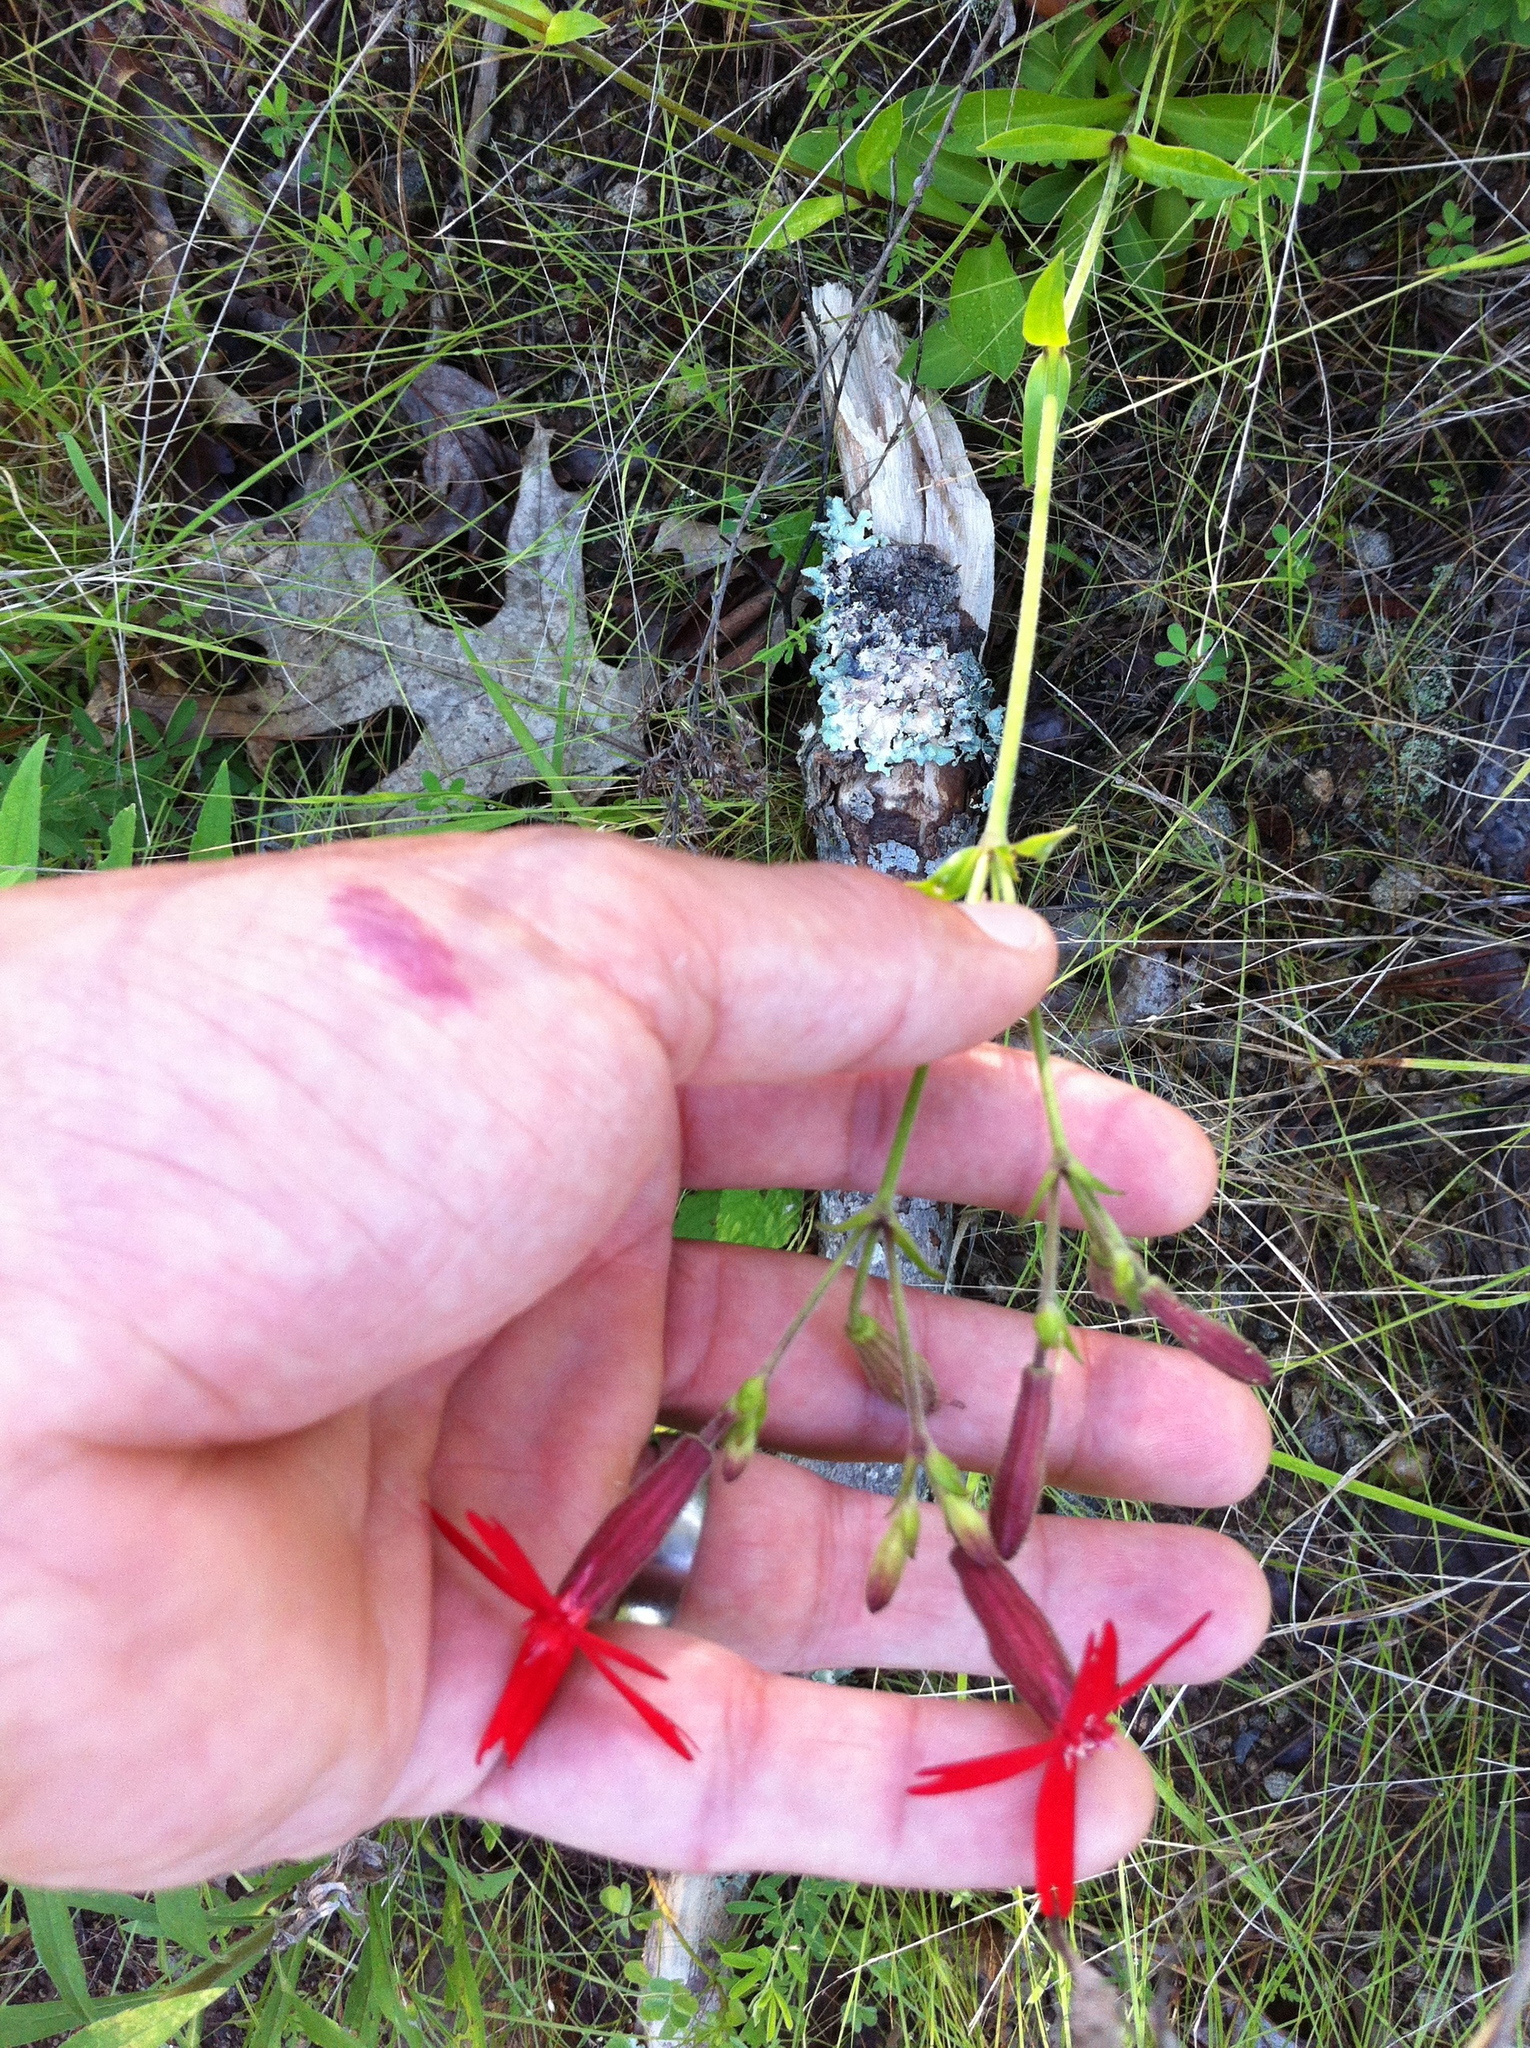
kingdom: Plantae
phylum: Tracheophyta
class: Magnoliopsida
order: Caryophyllales
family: Caryophyllaceae
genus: Silene
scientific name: Silene virginica
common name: Fire-pink
